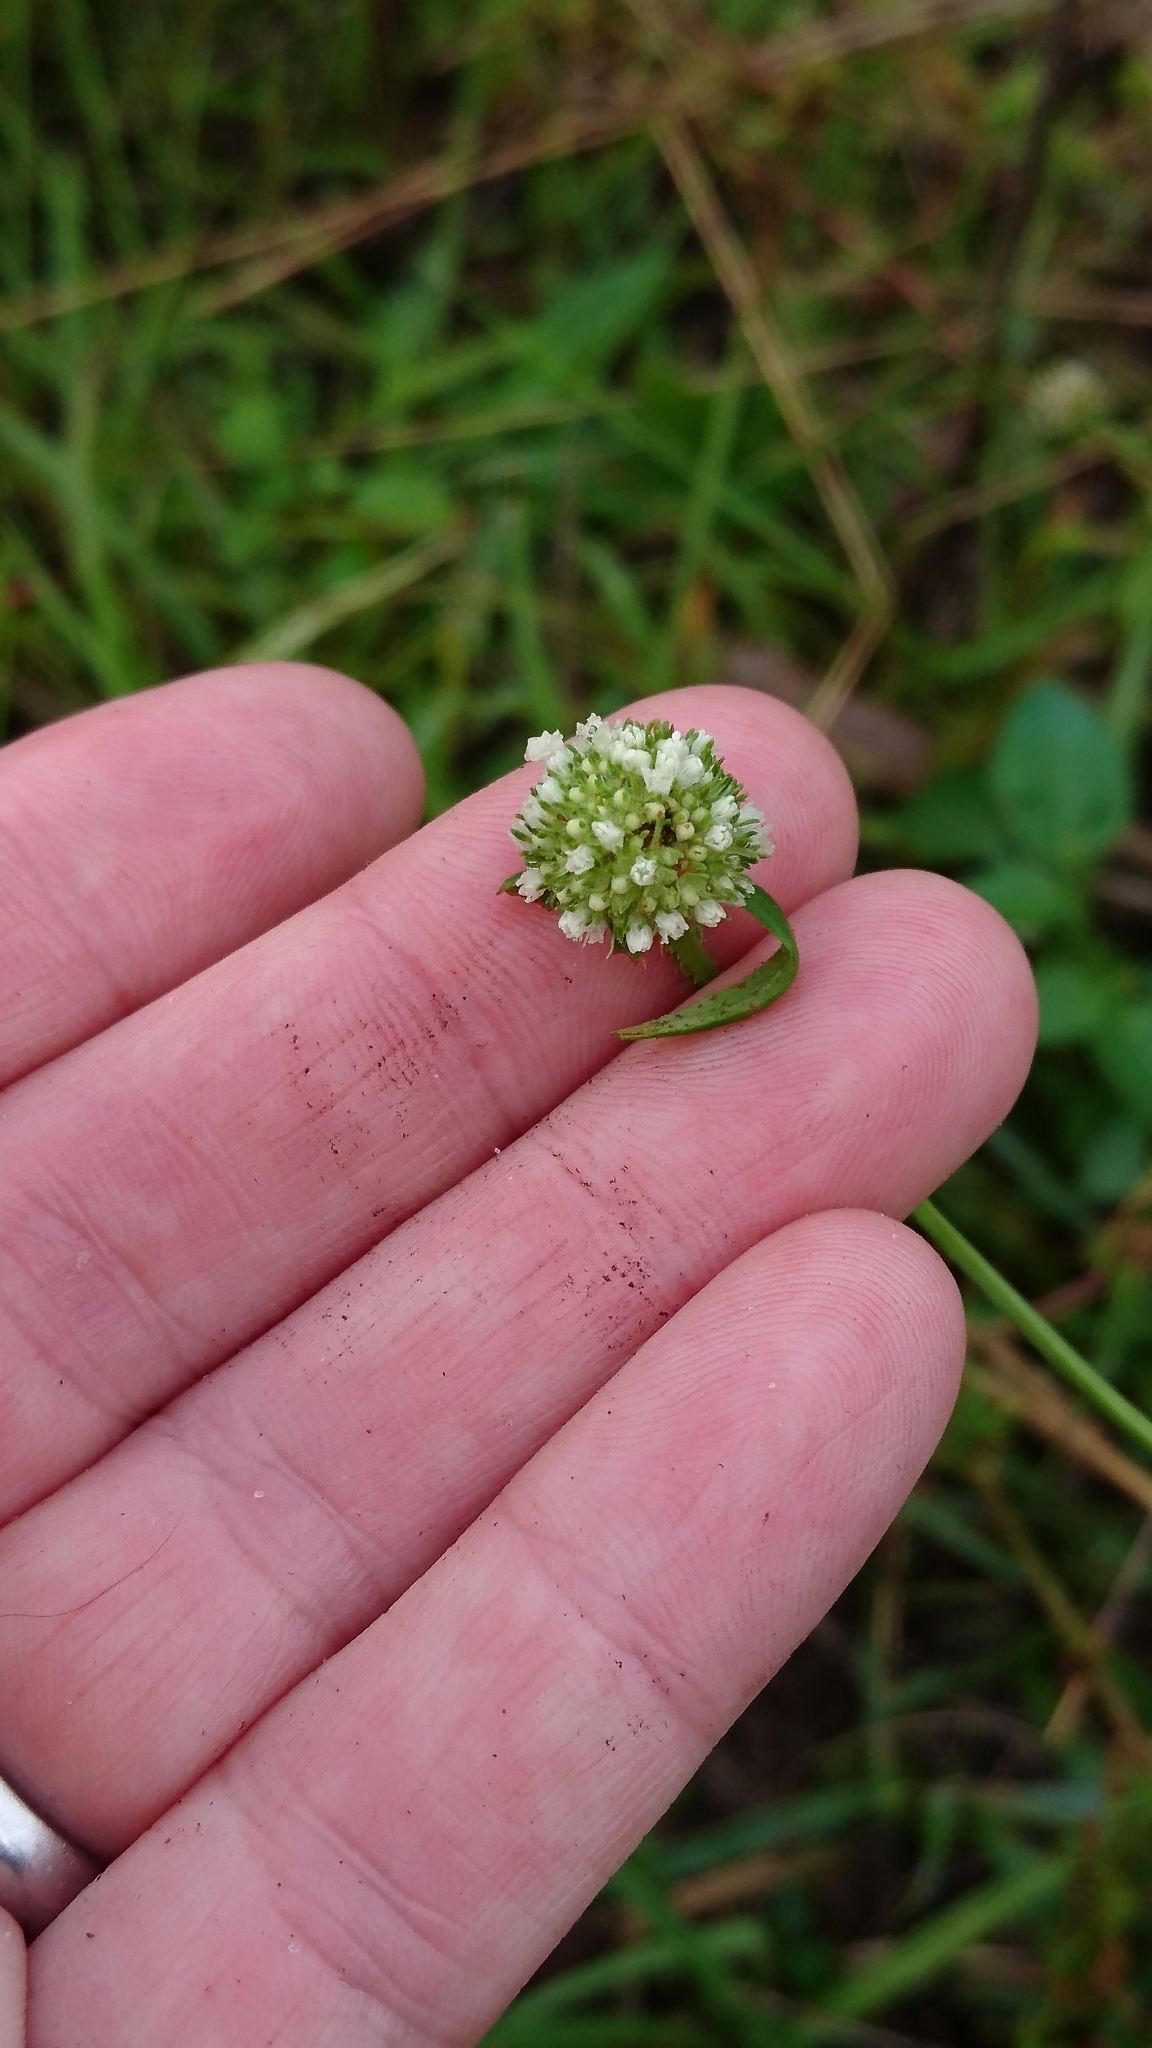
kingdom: Plantae
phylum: Tracheophyta
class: Magnoliopsida
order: Gentianales
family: Rubiaceae
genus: Spermacoce
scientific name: Spermacoce verticillata
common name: Shrubby false buttonweed
